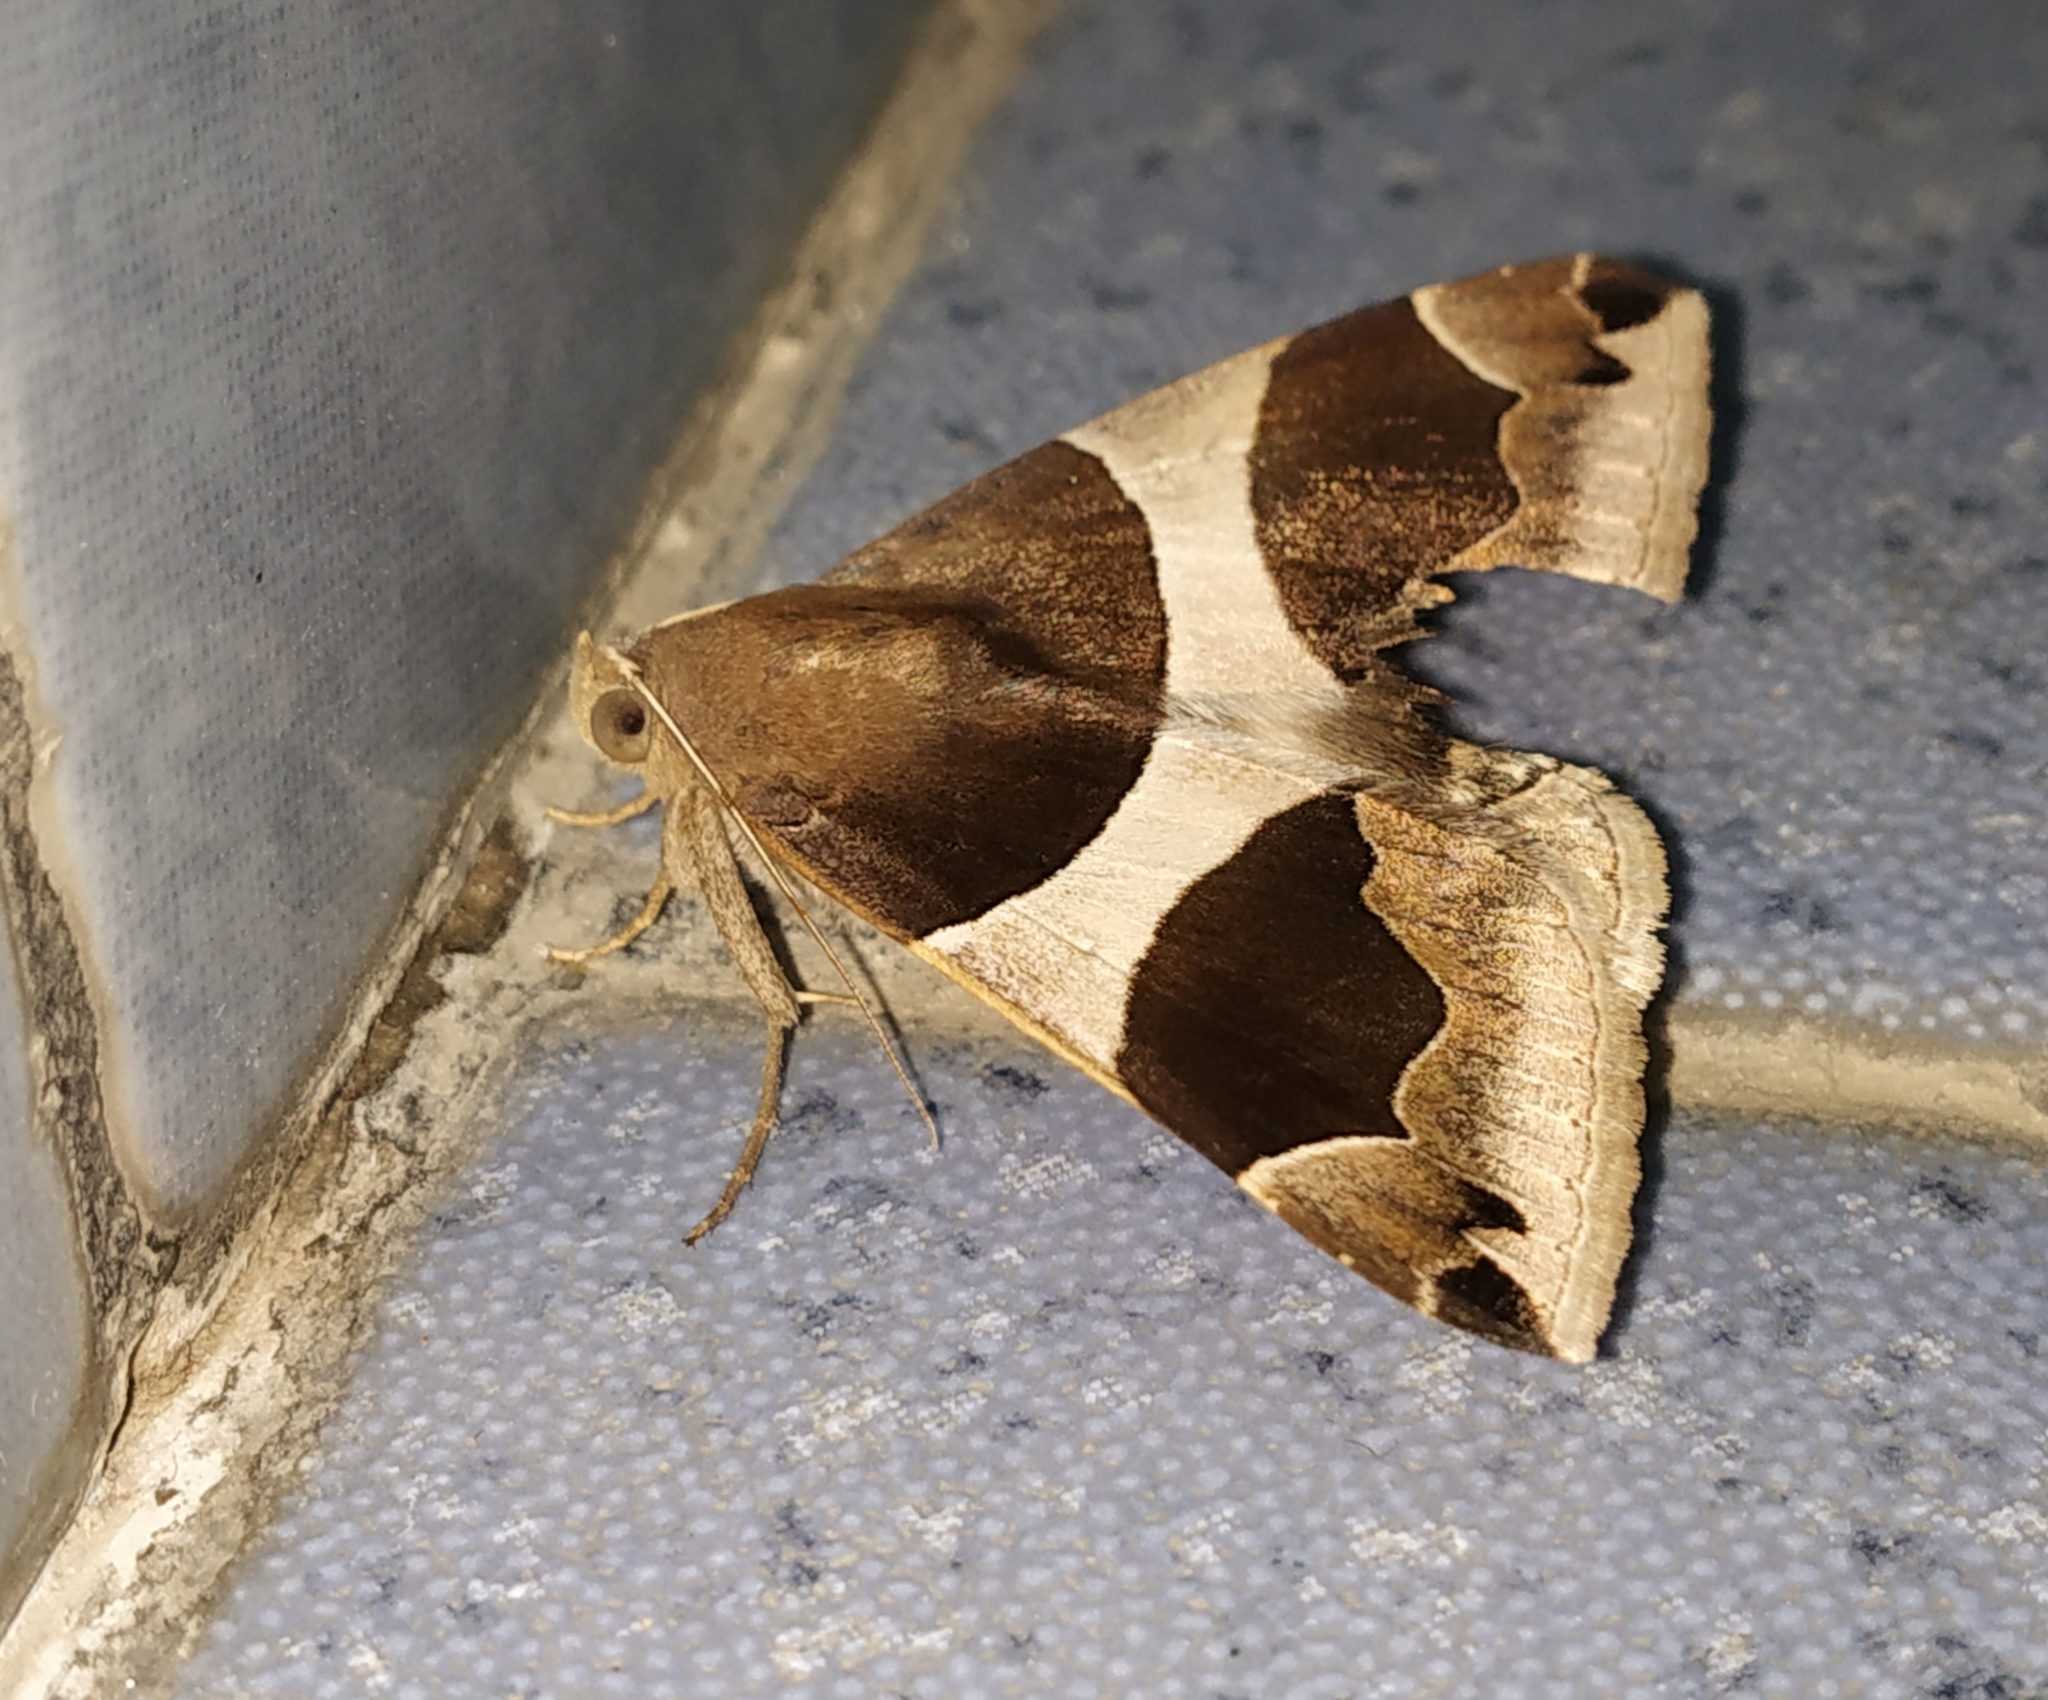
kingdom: Animalia
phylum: Arthropoda
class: Insecta
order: Lepidoptera
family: Erebidae
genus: Dysgonia
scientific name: Dysgonia torrida
